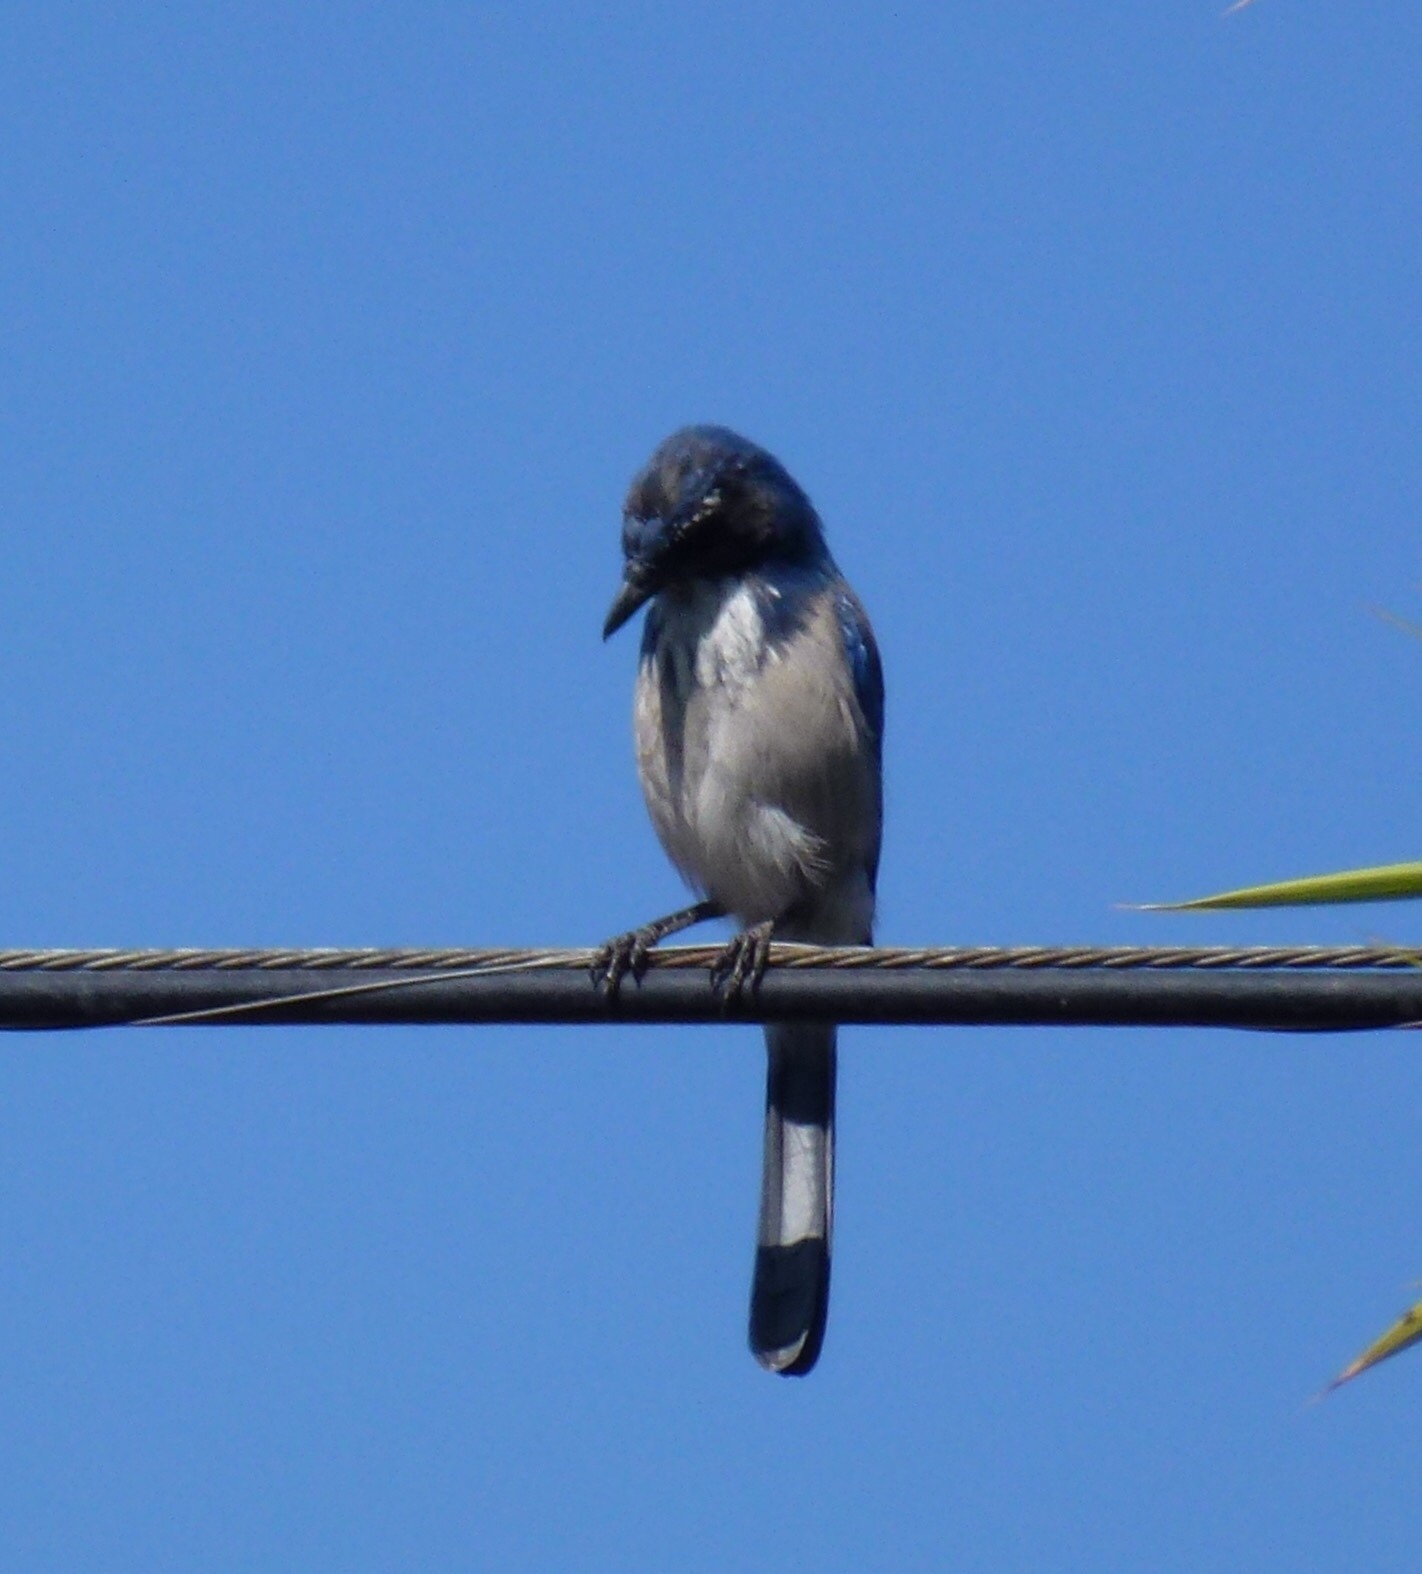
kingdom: Animalia
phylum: Chordata
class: Aves
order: Passeriformes
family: Corvidae
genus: Aphelocoma
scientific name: Aphelocoma californica
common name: California scrub-jay
